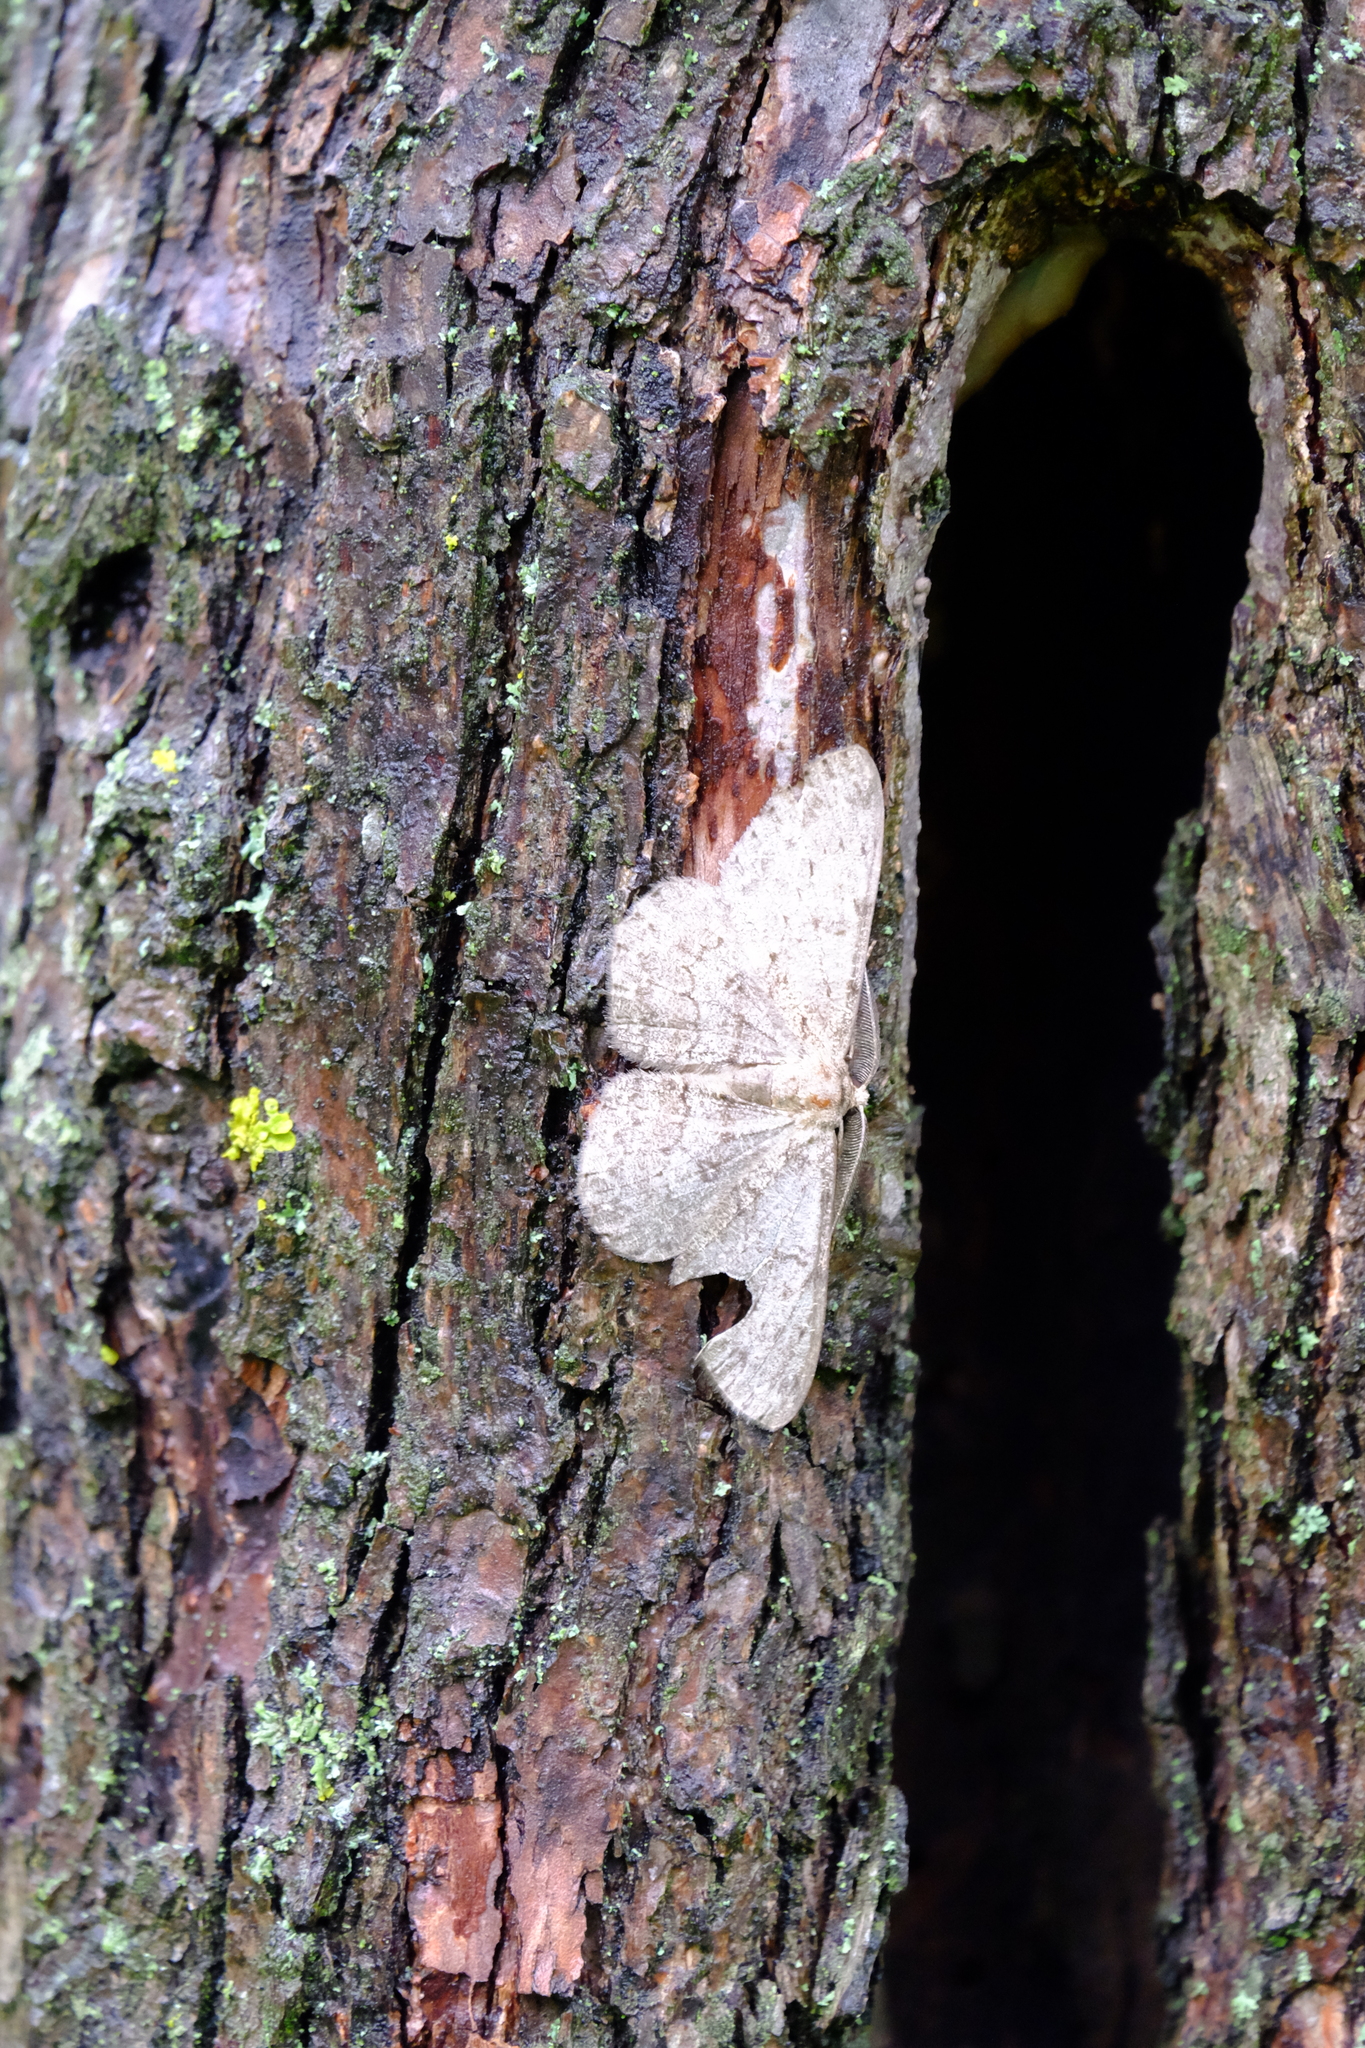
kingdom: Animalia
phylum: Arthropoda
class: Insecta
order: Lepidoptera
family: Geometridae
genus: Hypomecis
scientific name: Hypomecis punctinalis
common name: Pale oak beauty
